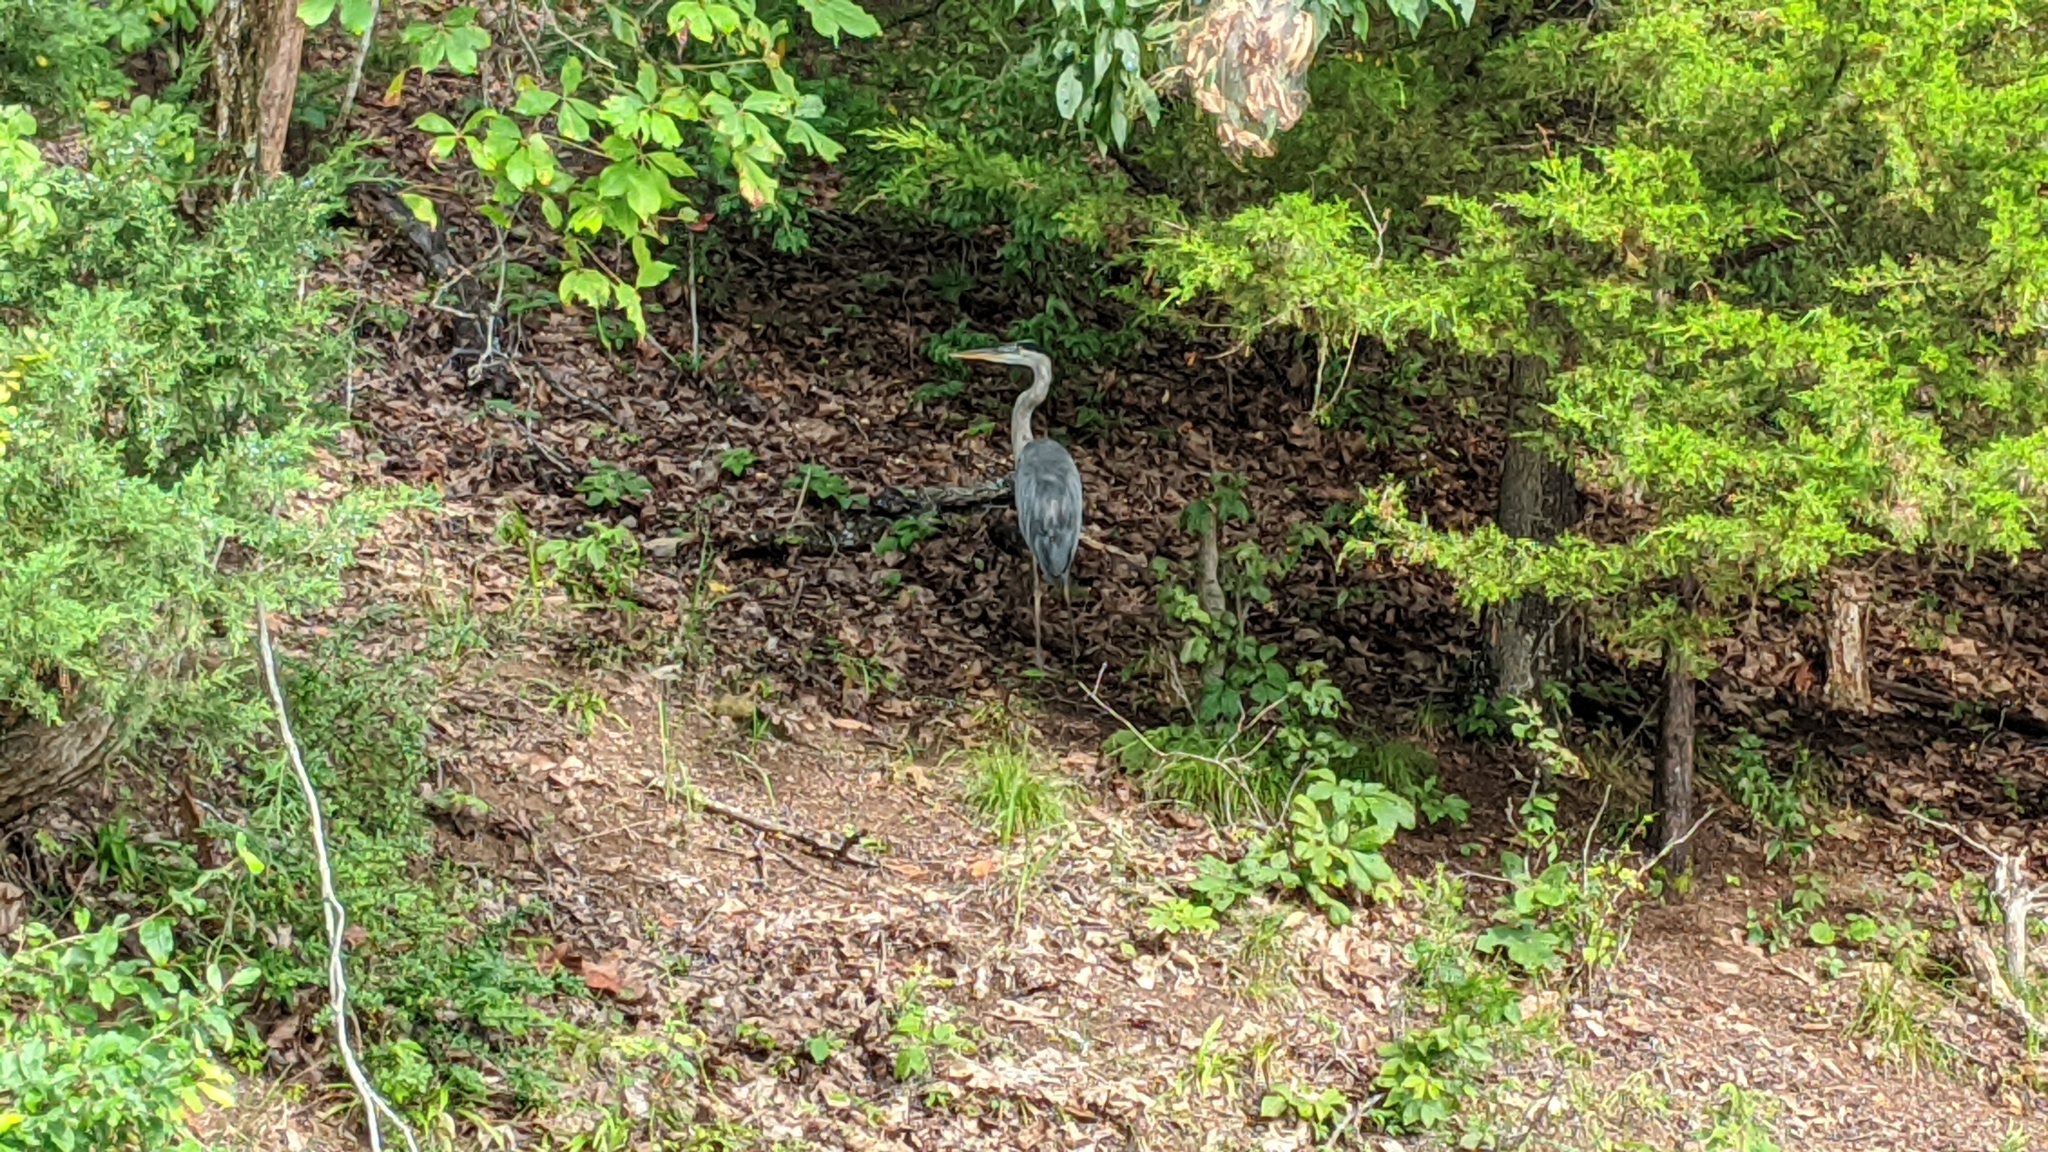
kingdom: Animalia
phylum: Chordata
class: Aves
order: Pelecaniformes
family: Ardeidae
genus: Ardea
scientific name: Ardea herodias
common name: Great blue heron
